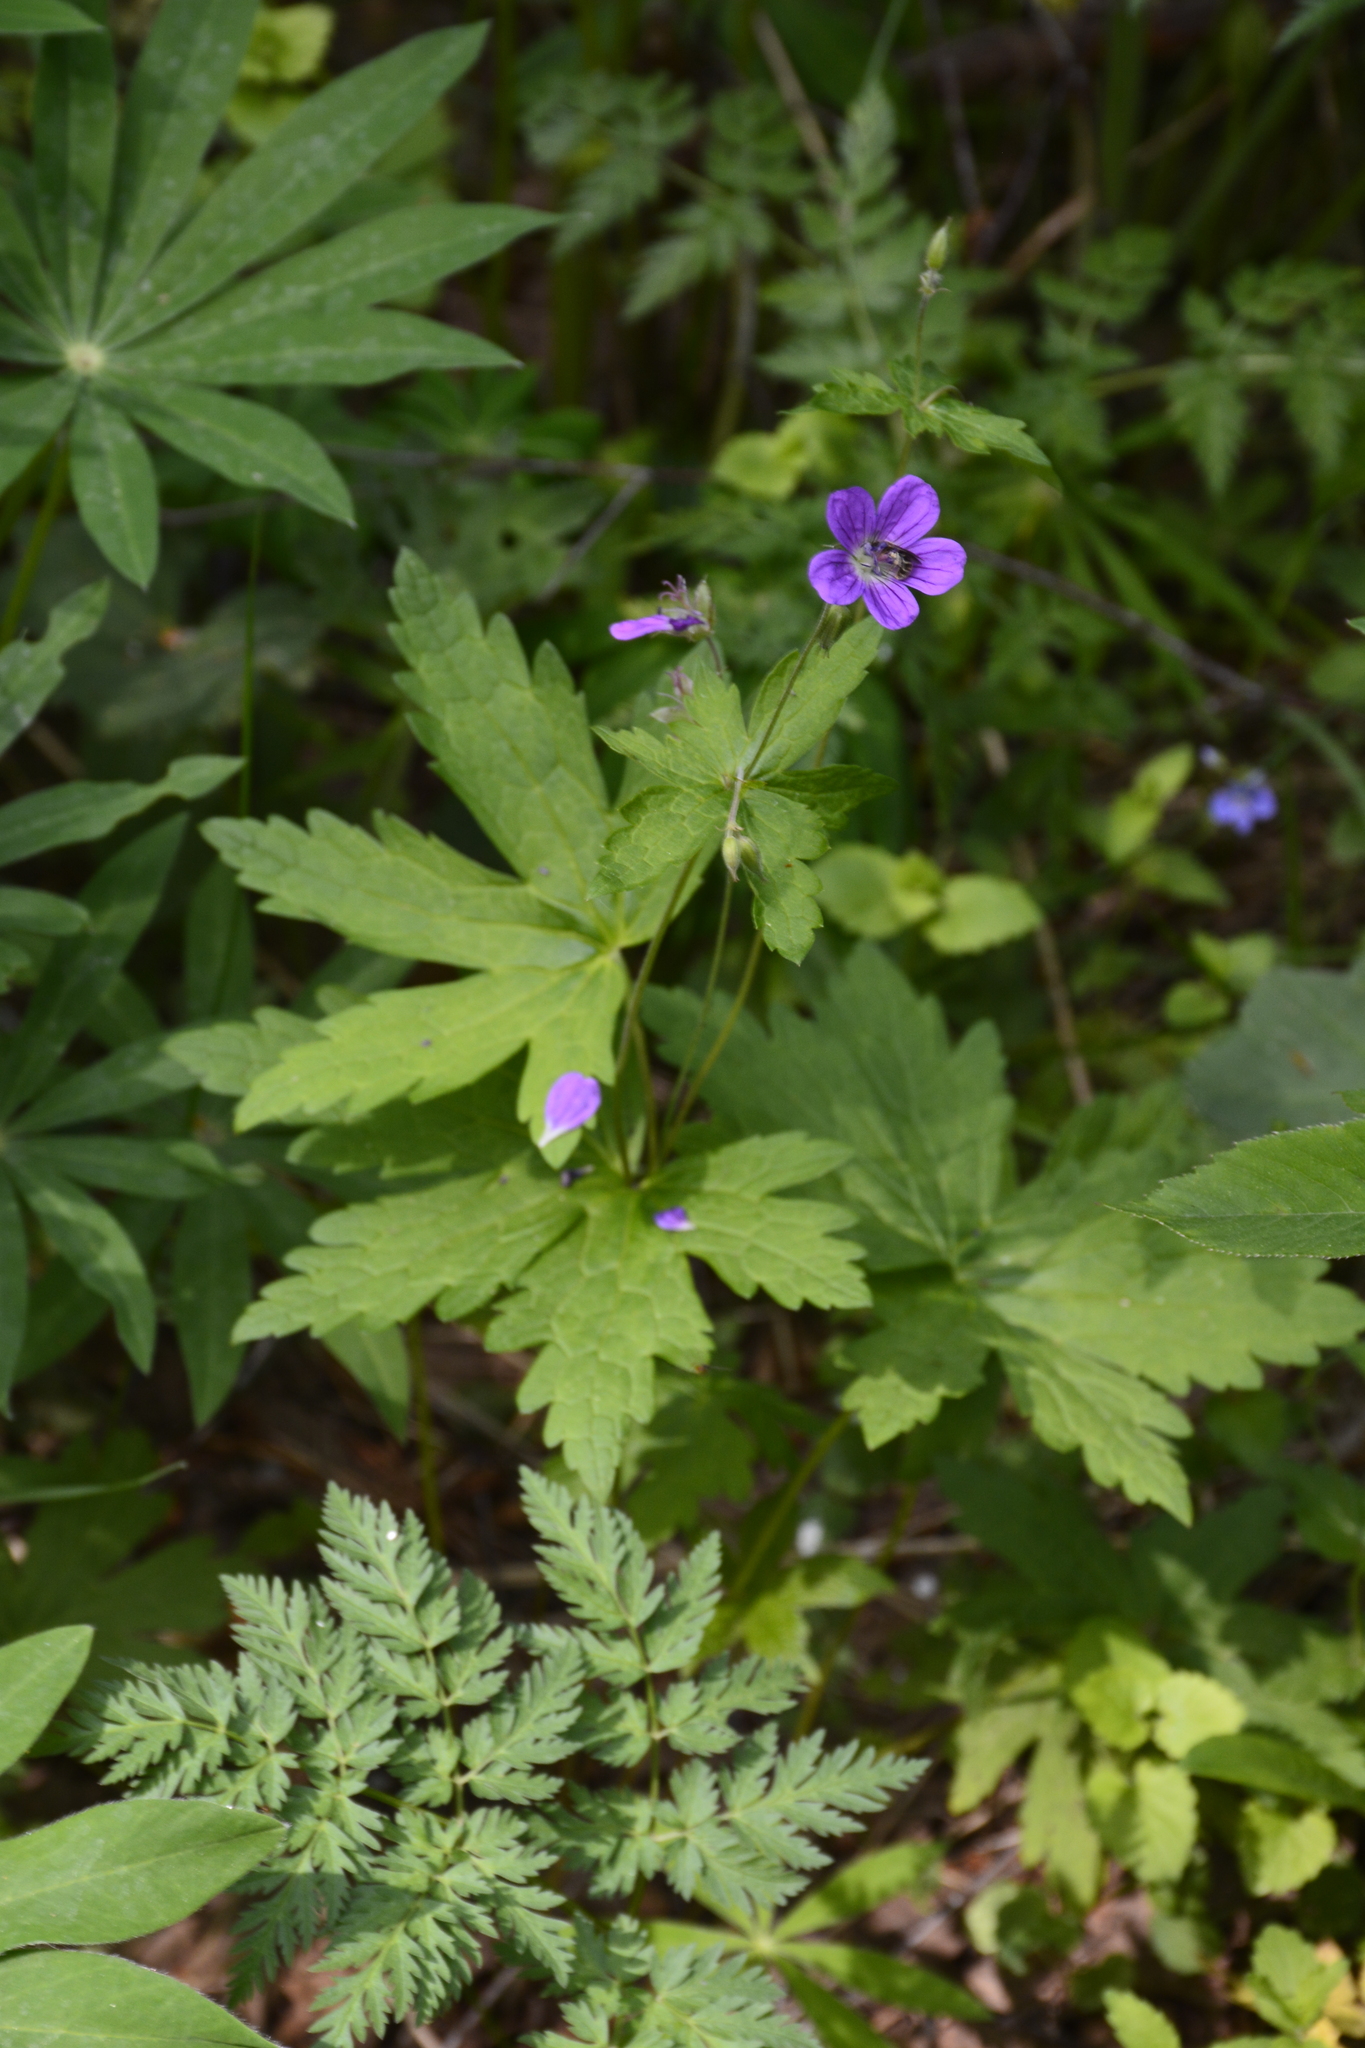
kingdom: Plantae
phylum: Tracheophyta
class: Magnoliopsida
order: Geraniales
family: Geraniaceae
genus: Geranium
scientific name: Geranium sylvaticum
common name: Wood crane's-bill
